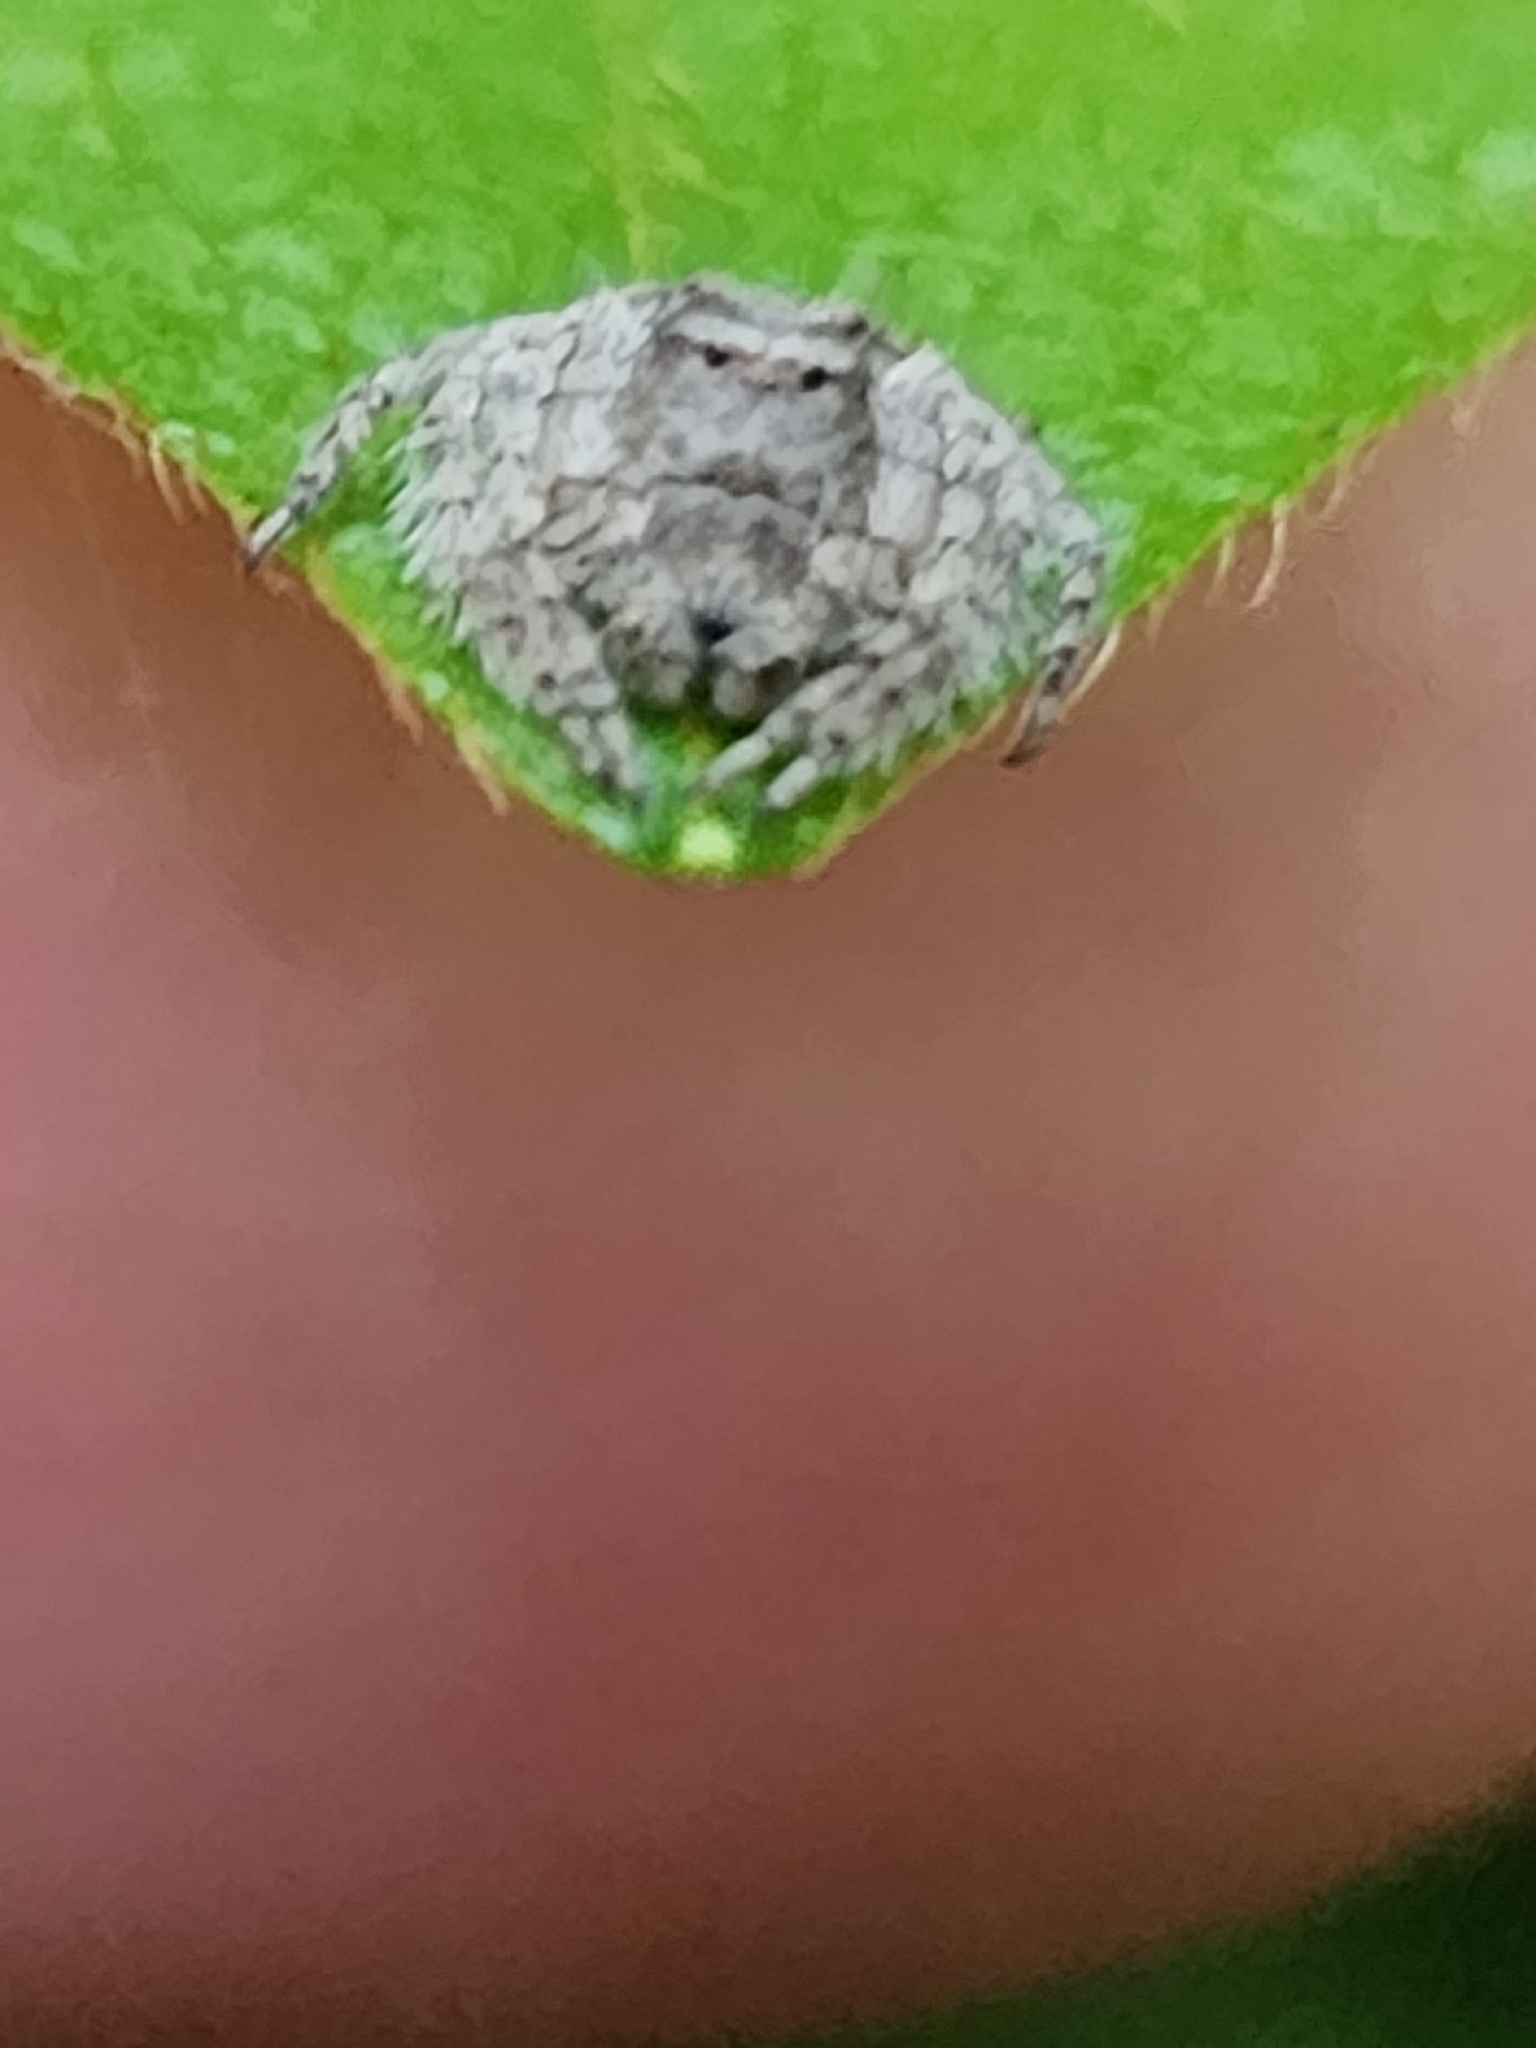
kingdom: Animalia
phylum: Arthropoda
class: Arachnida
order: Araneae
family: Oxyopidae
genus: Hamataliwa
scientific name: Hamataliwa grisea
